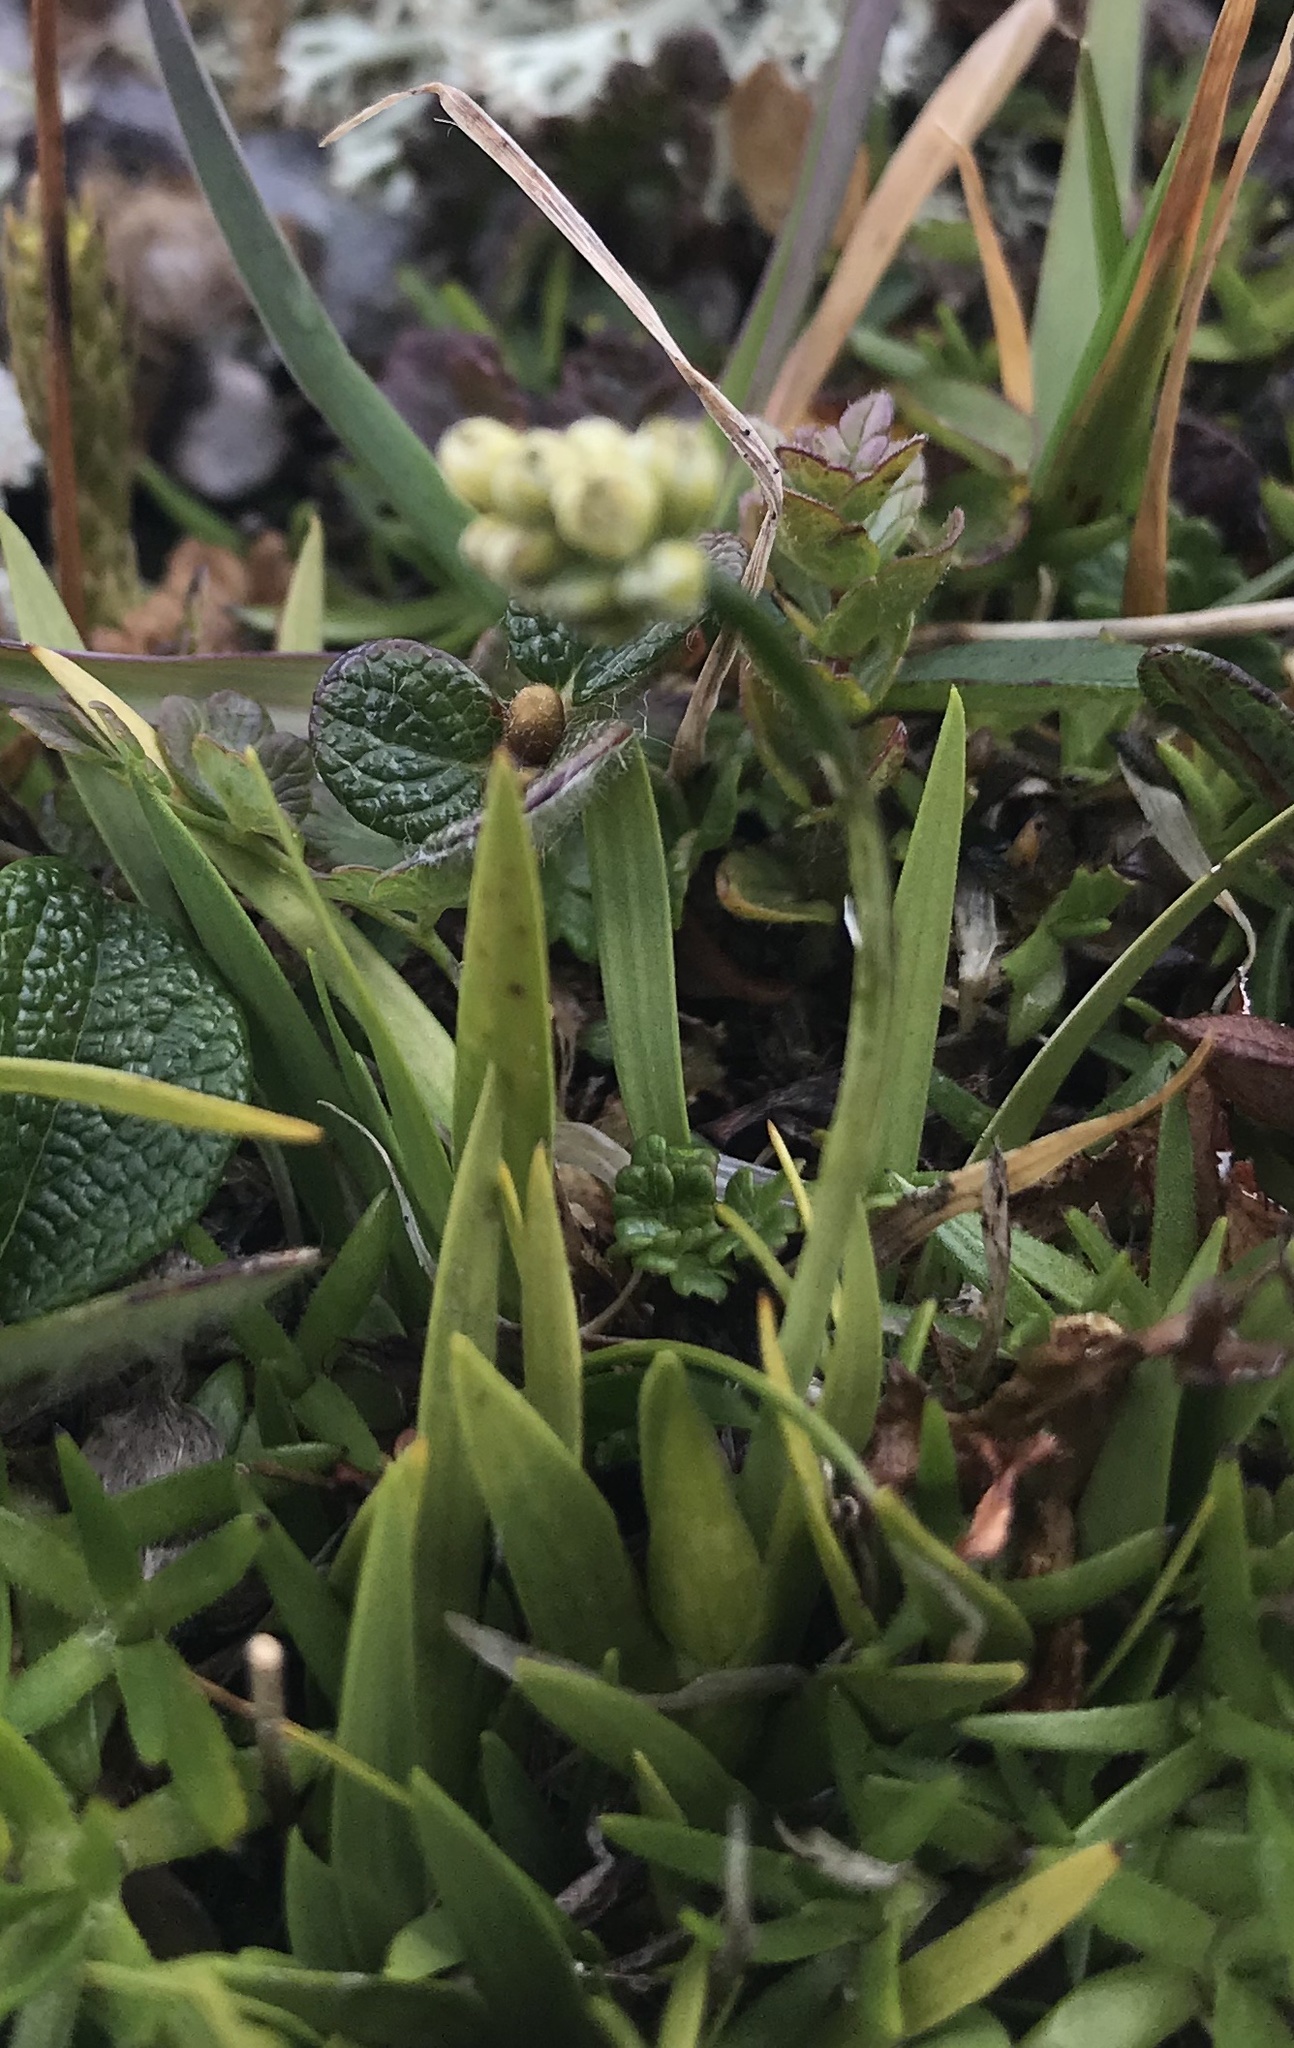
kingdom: Plantae
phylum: Tracheophyta
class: Liliopsida
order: Alismatales
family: Tofieldiaceae
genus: Tofieldia
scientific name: Tofieldia pusilla
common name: Scottish false asphodel
